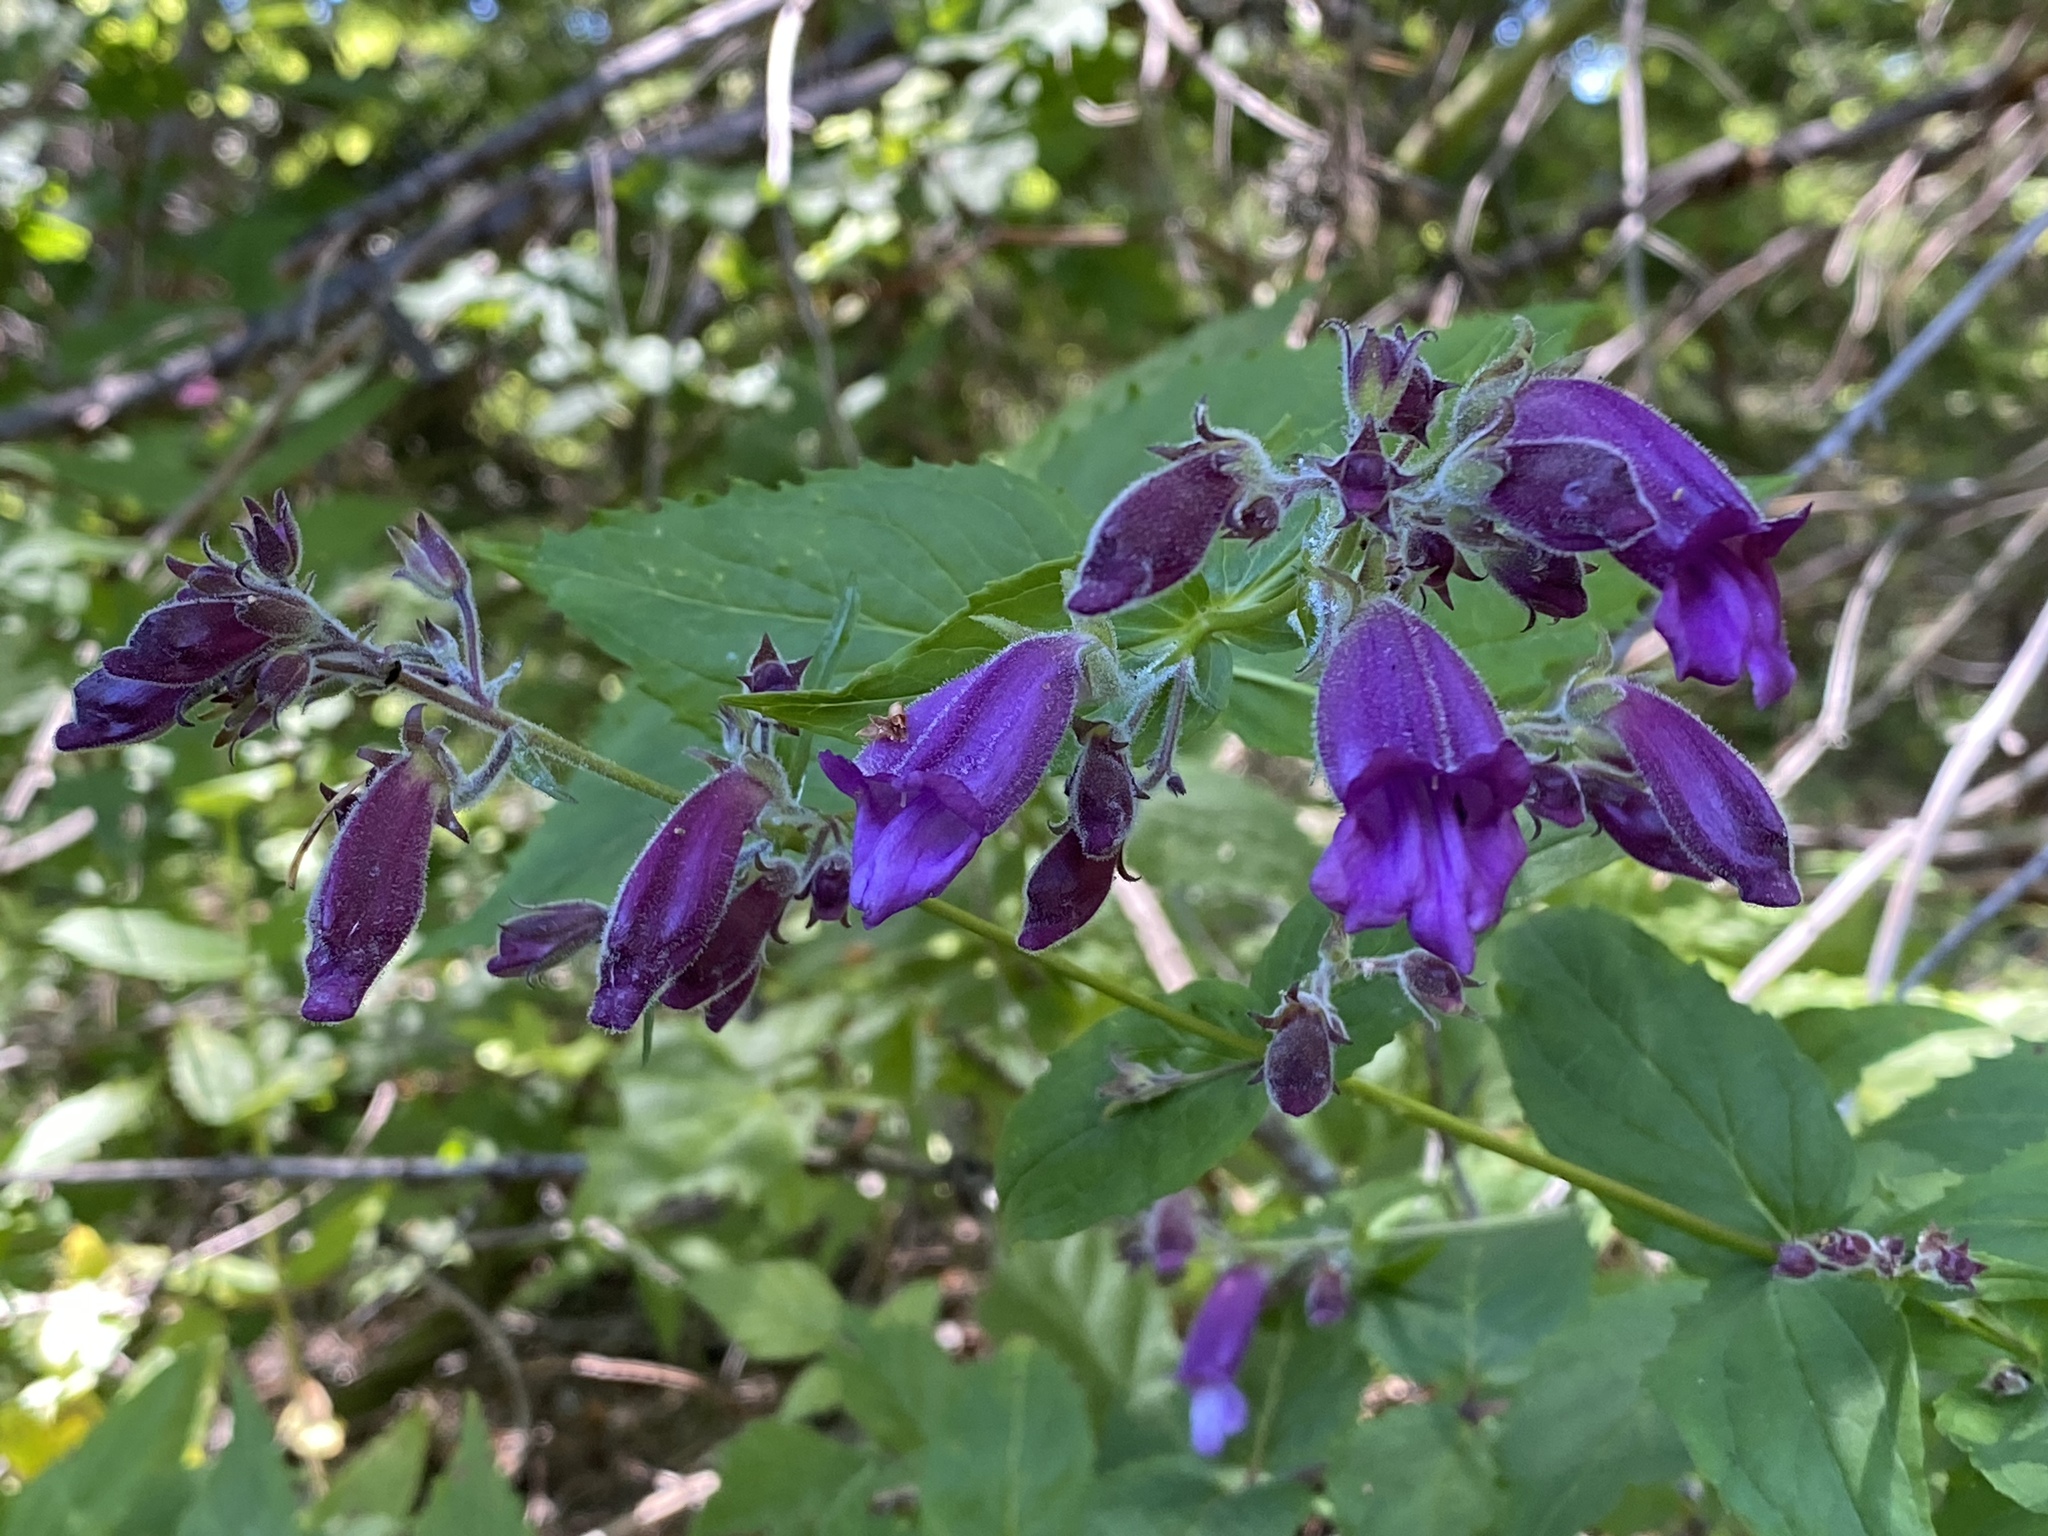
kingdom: Plantae
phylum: Tracheophyta
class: Magnoliopsida
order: Lamiales
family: Plantaginaceae
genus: Nothochelone
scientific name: Nothochelone nemorosa
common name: Woodland beardtongue
